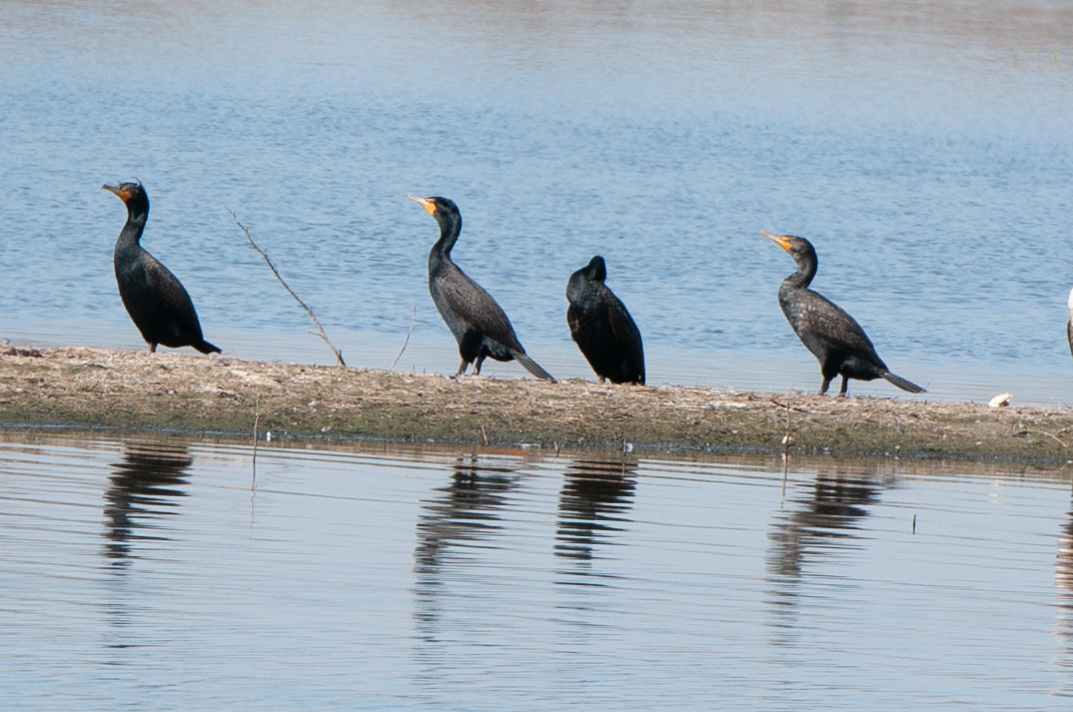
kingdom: Animalia
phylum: Chordata
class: Aves
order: Suliformes
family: Phalacrocoracidae
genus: Phalacrocorax
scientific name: Phalacrocorax auritus
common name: Double-crested cormorant
